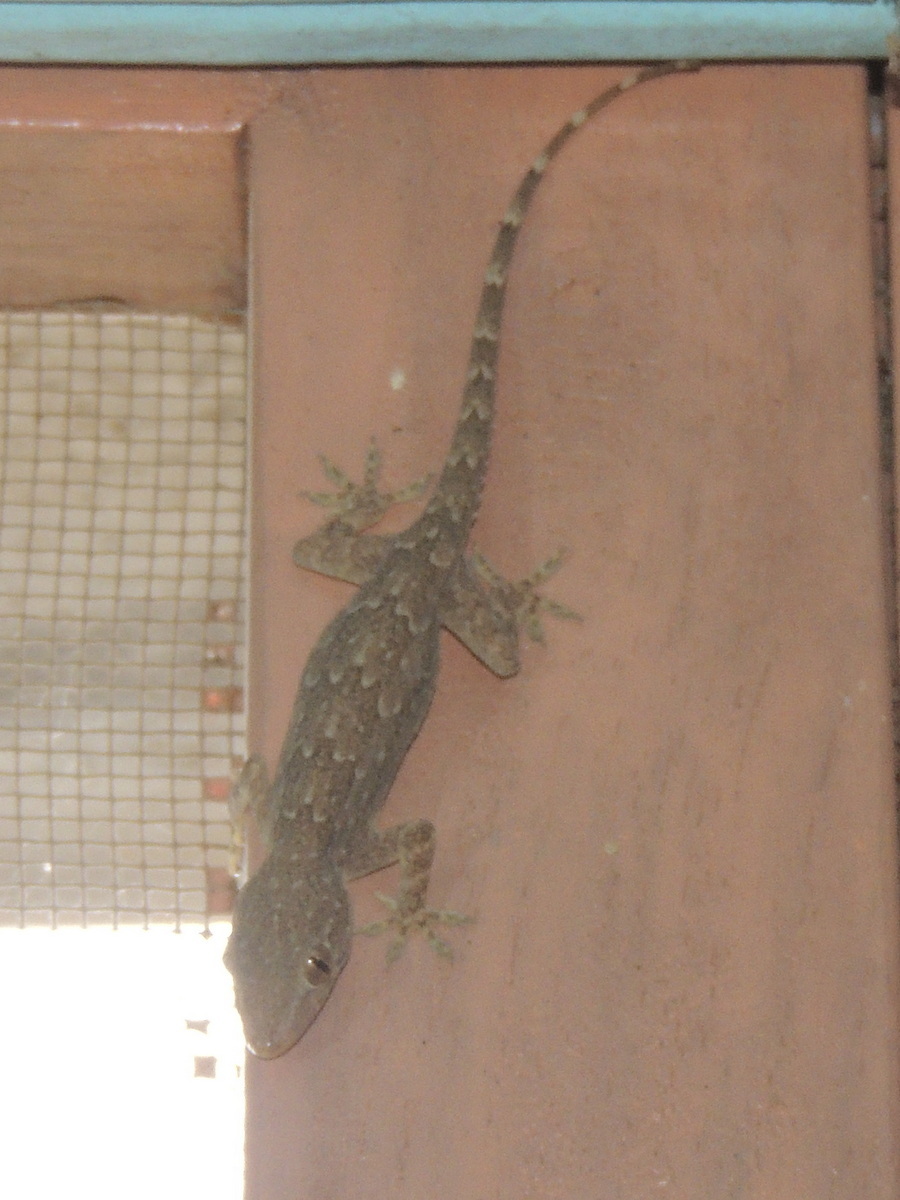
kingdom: Animalia
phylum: Chordata
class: Squamata
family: Gekkonidae
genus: Hemidactylus
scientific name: Hemidactylus leschenaultii
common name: Leschenault's leaf-toed gecko
